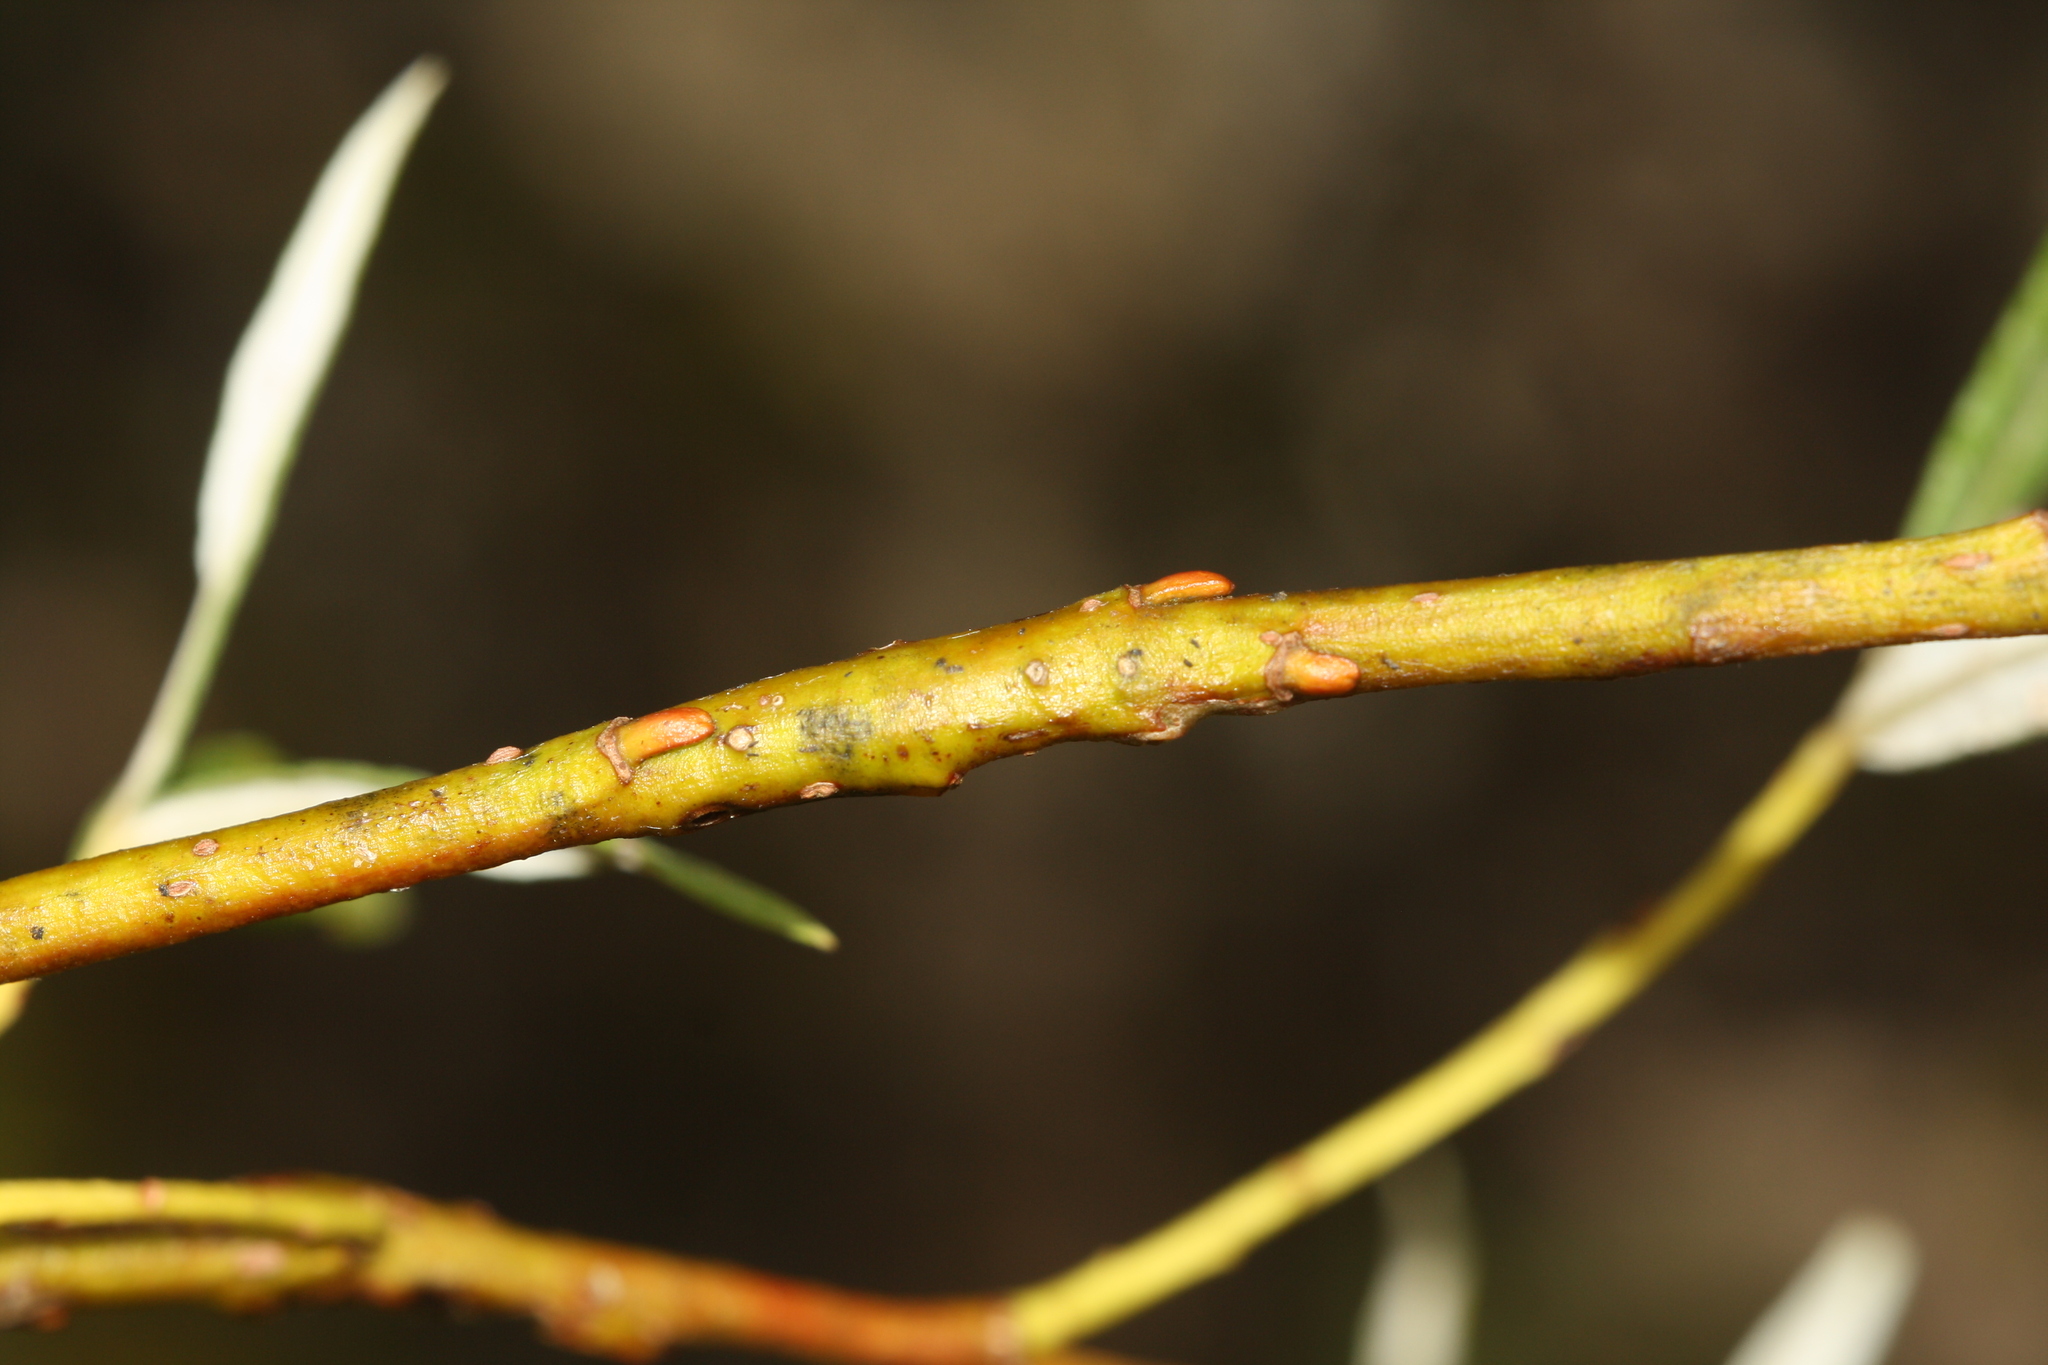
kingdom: Animalia
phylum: Arthropoda
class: Insecta
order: Hymenoptera
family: Tenthredinidae
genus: Euura
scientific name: Euura elaeagnos
